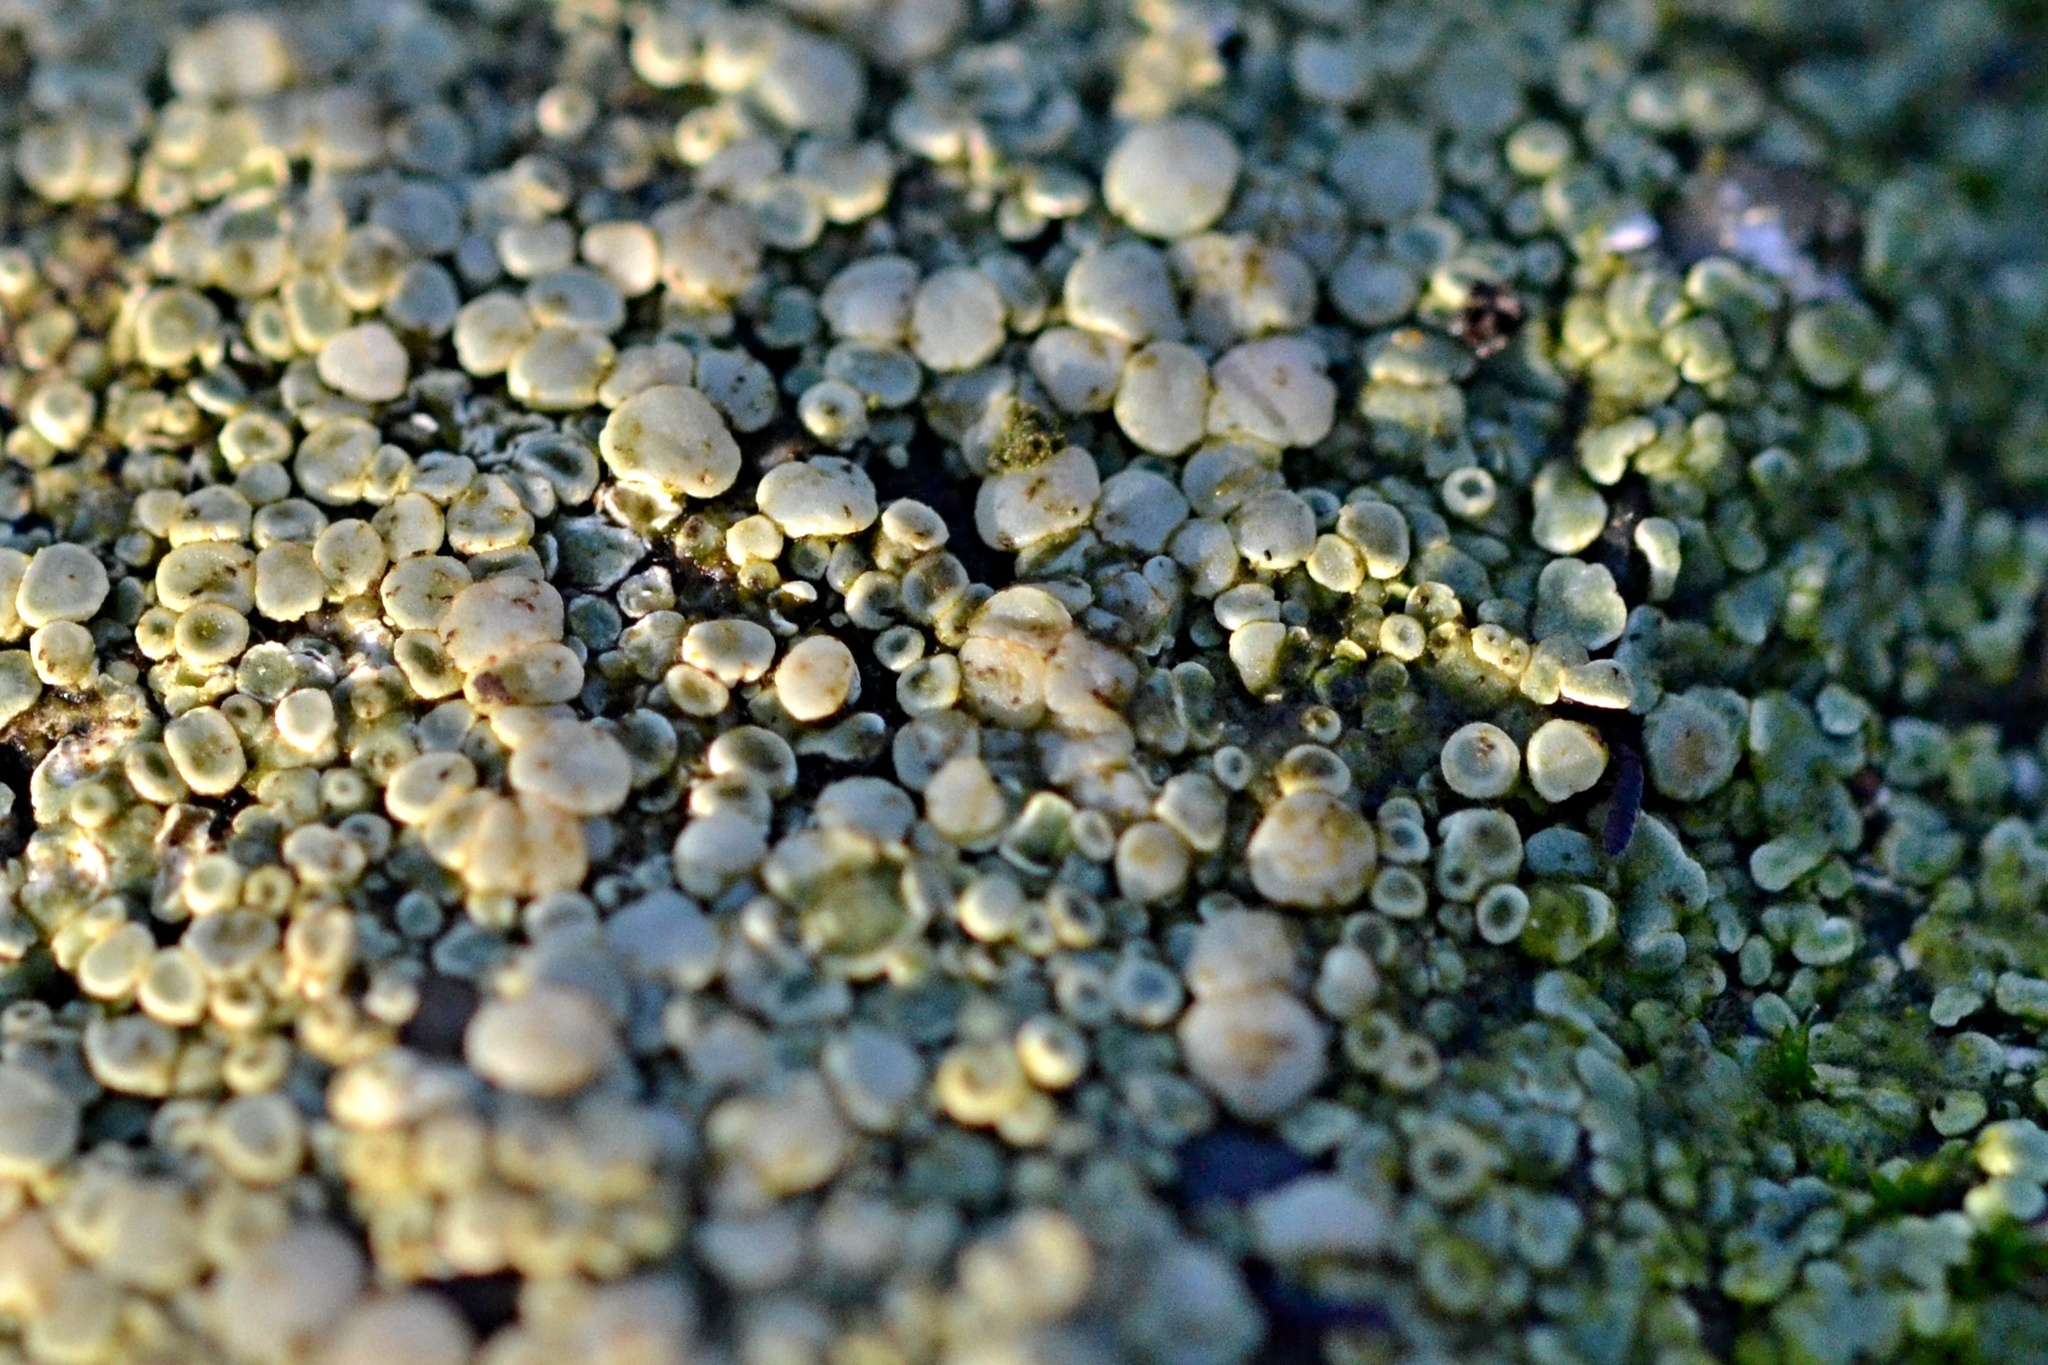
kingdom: Fungi
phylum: Ascomycota
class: Lecanoromycetes
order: Lecanorales
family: Lecanoraceae
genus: Polyozosia
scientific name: Polyozosia albescens
